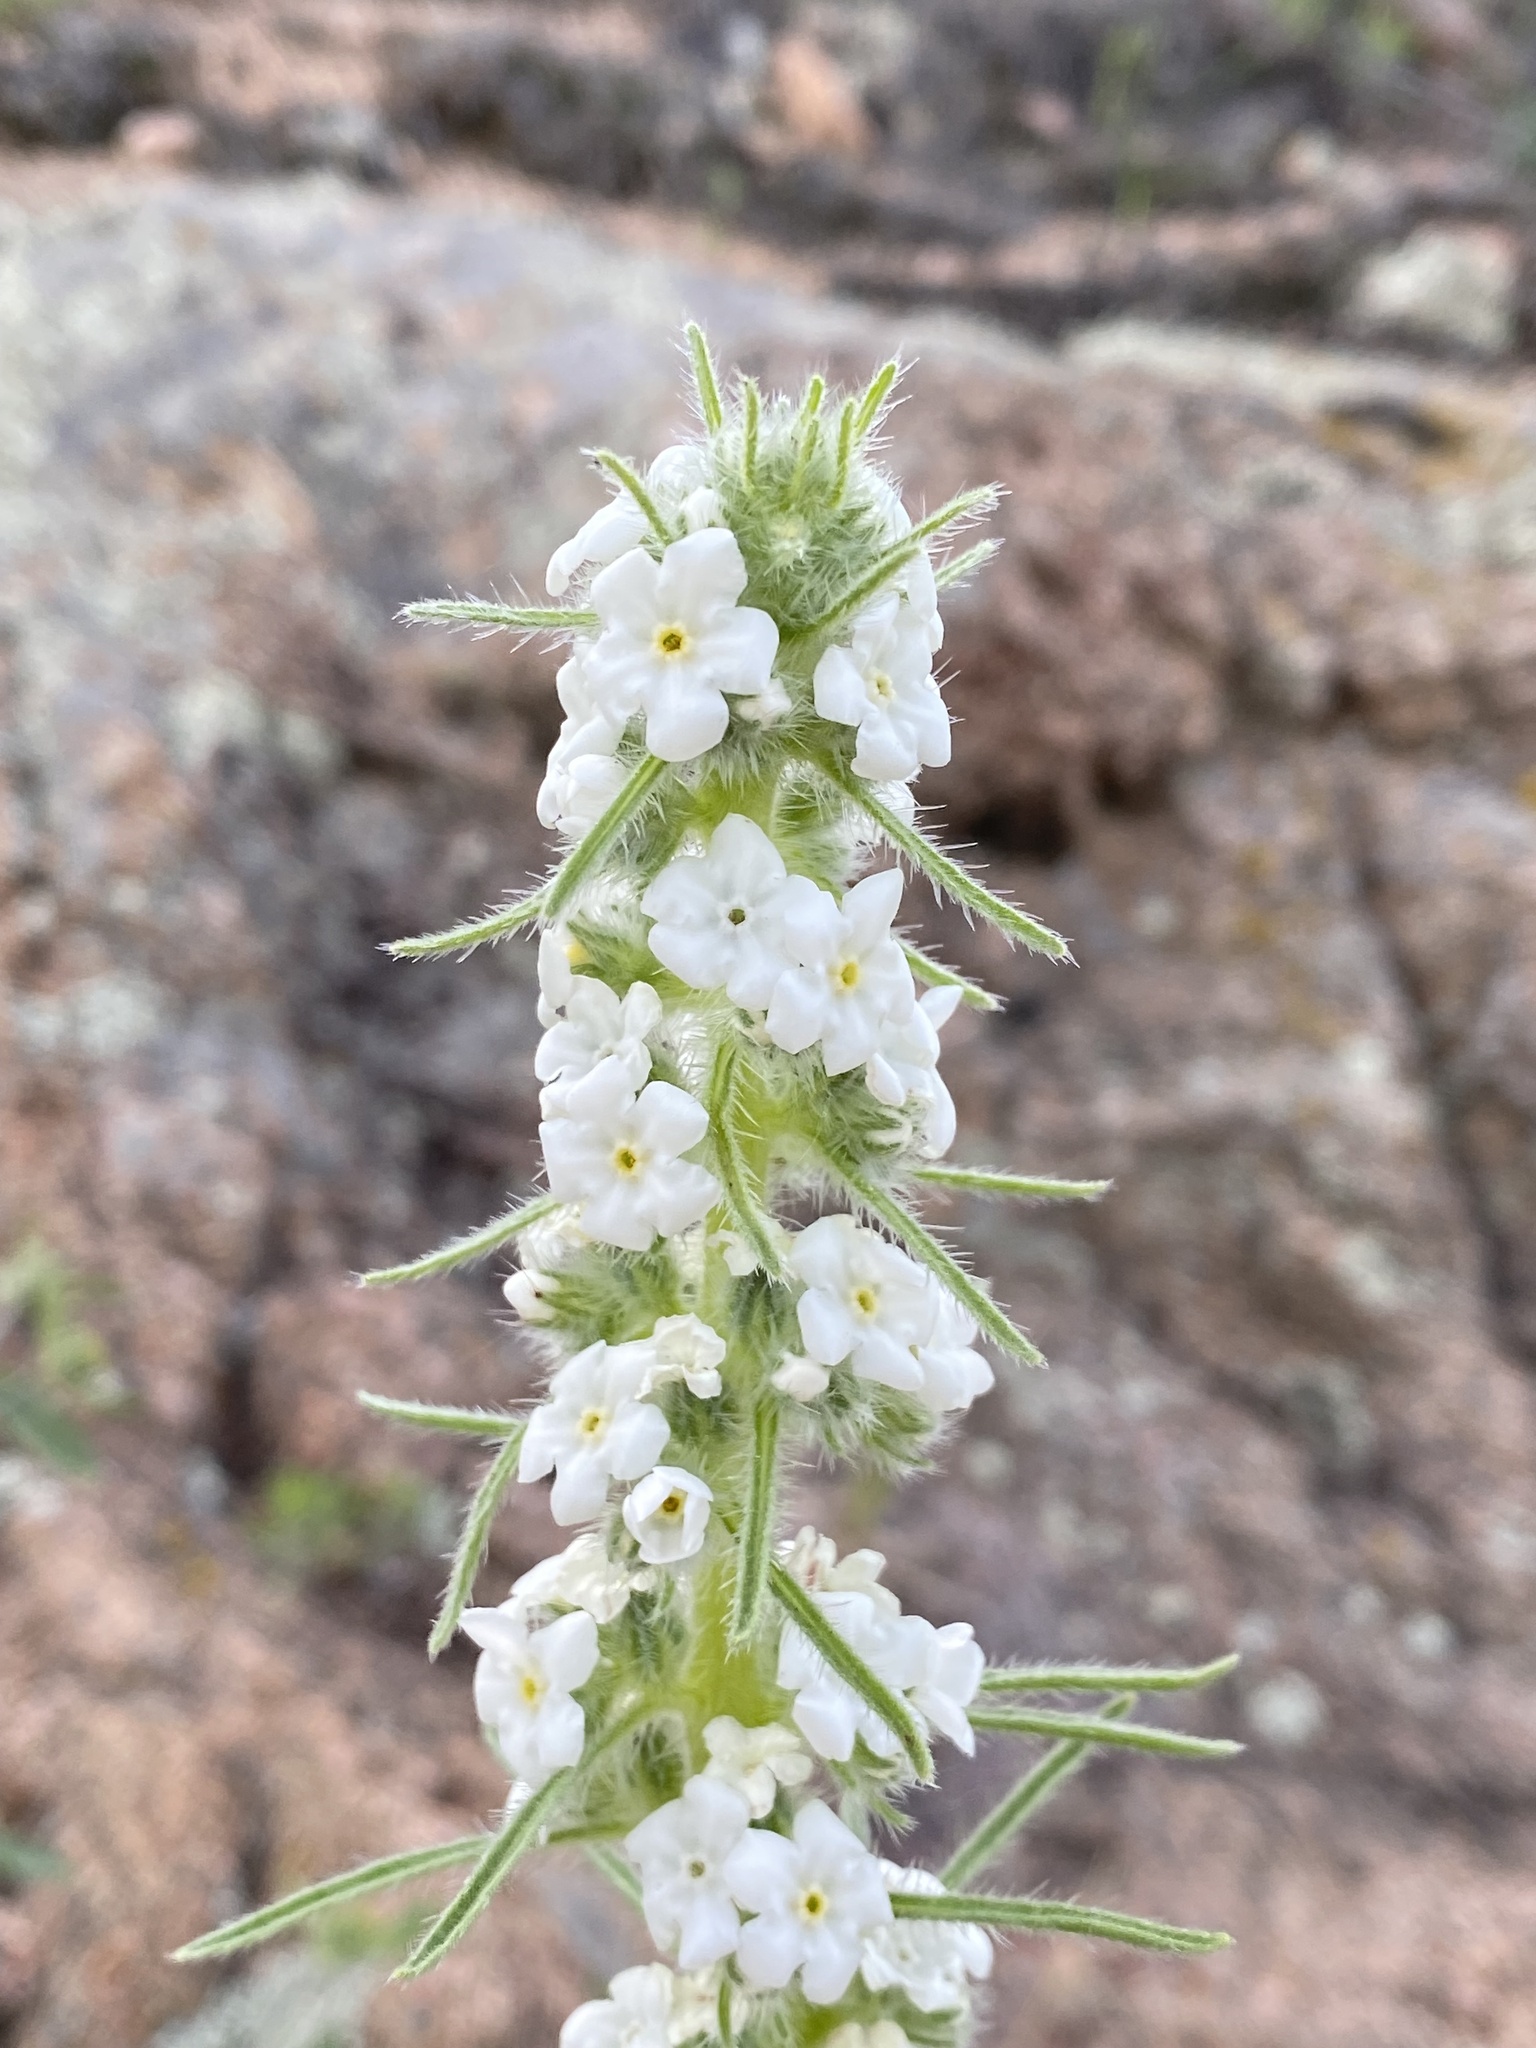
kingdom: Plantae
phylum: Tracheophyta
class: Magnoliopsida
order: Boraginales
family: Boraginaceae
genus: Oreocarya
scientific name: Oreocarya virgata
